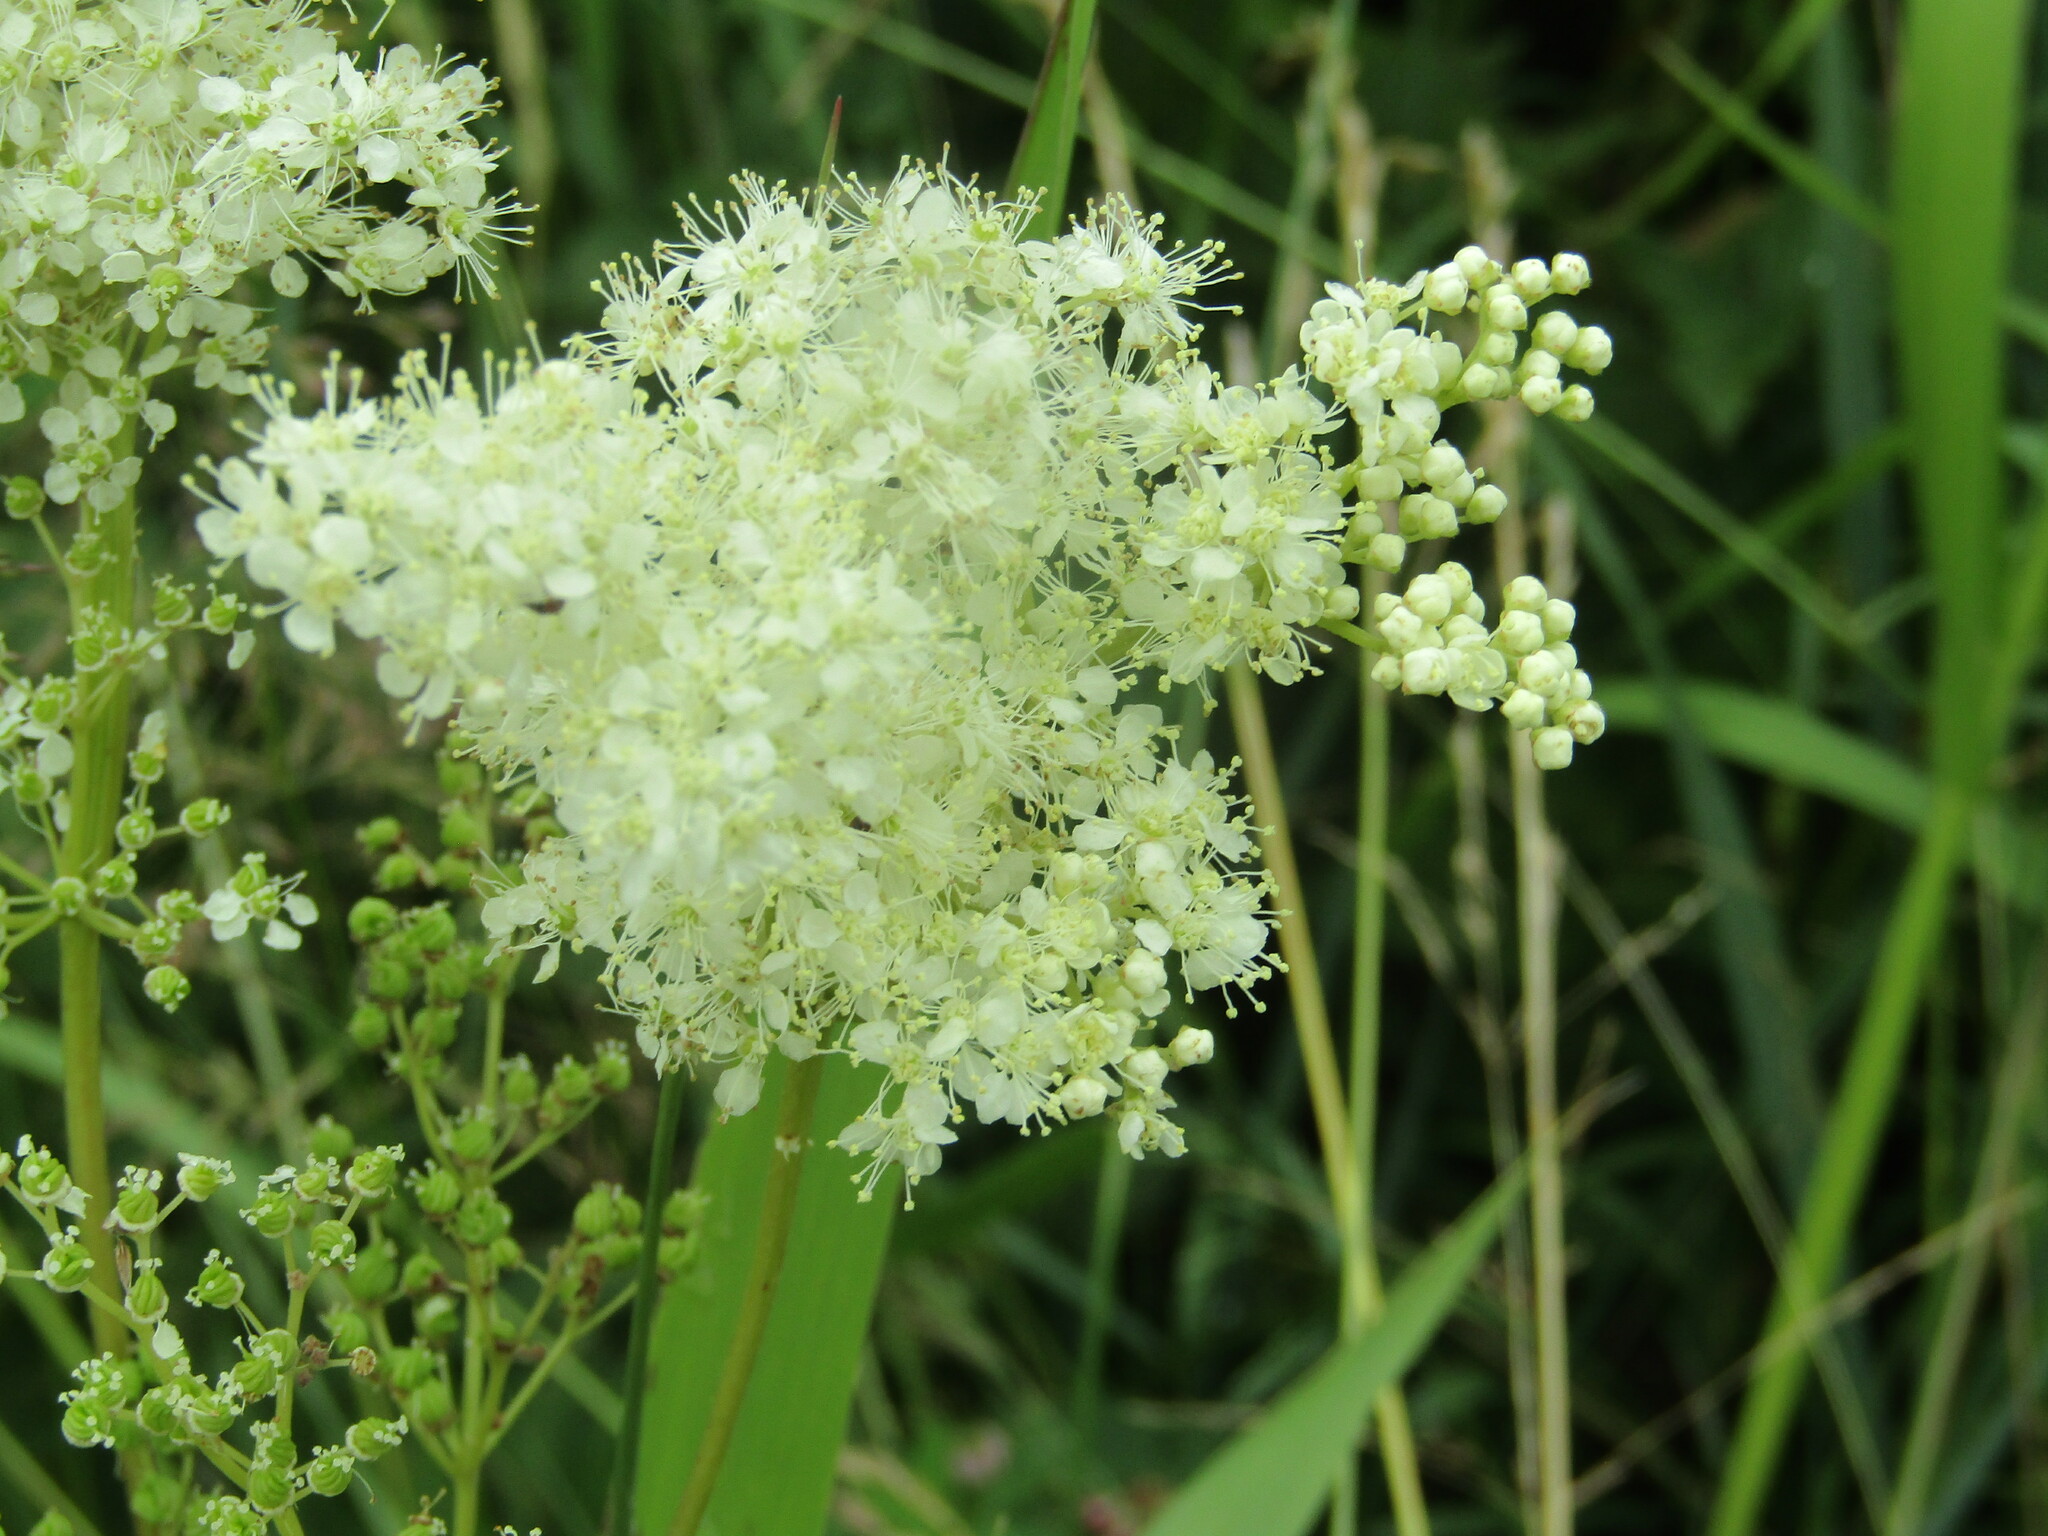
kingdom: Plantae
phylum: Tracheophyta
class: Magnoliopsida
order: Rosales
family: Rosaceae
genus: Filipendula
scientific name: Filipendula ulmaria
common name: Meadowsweet
